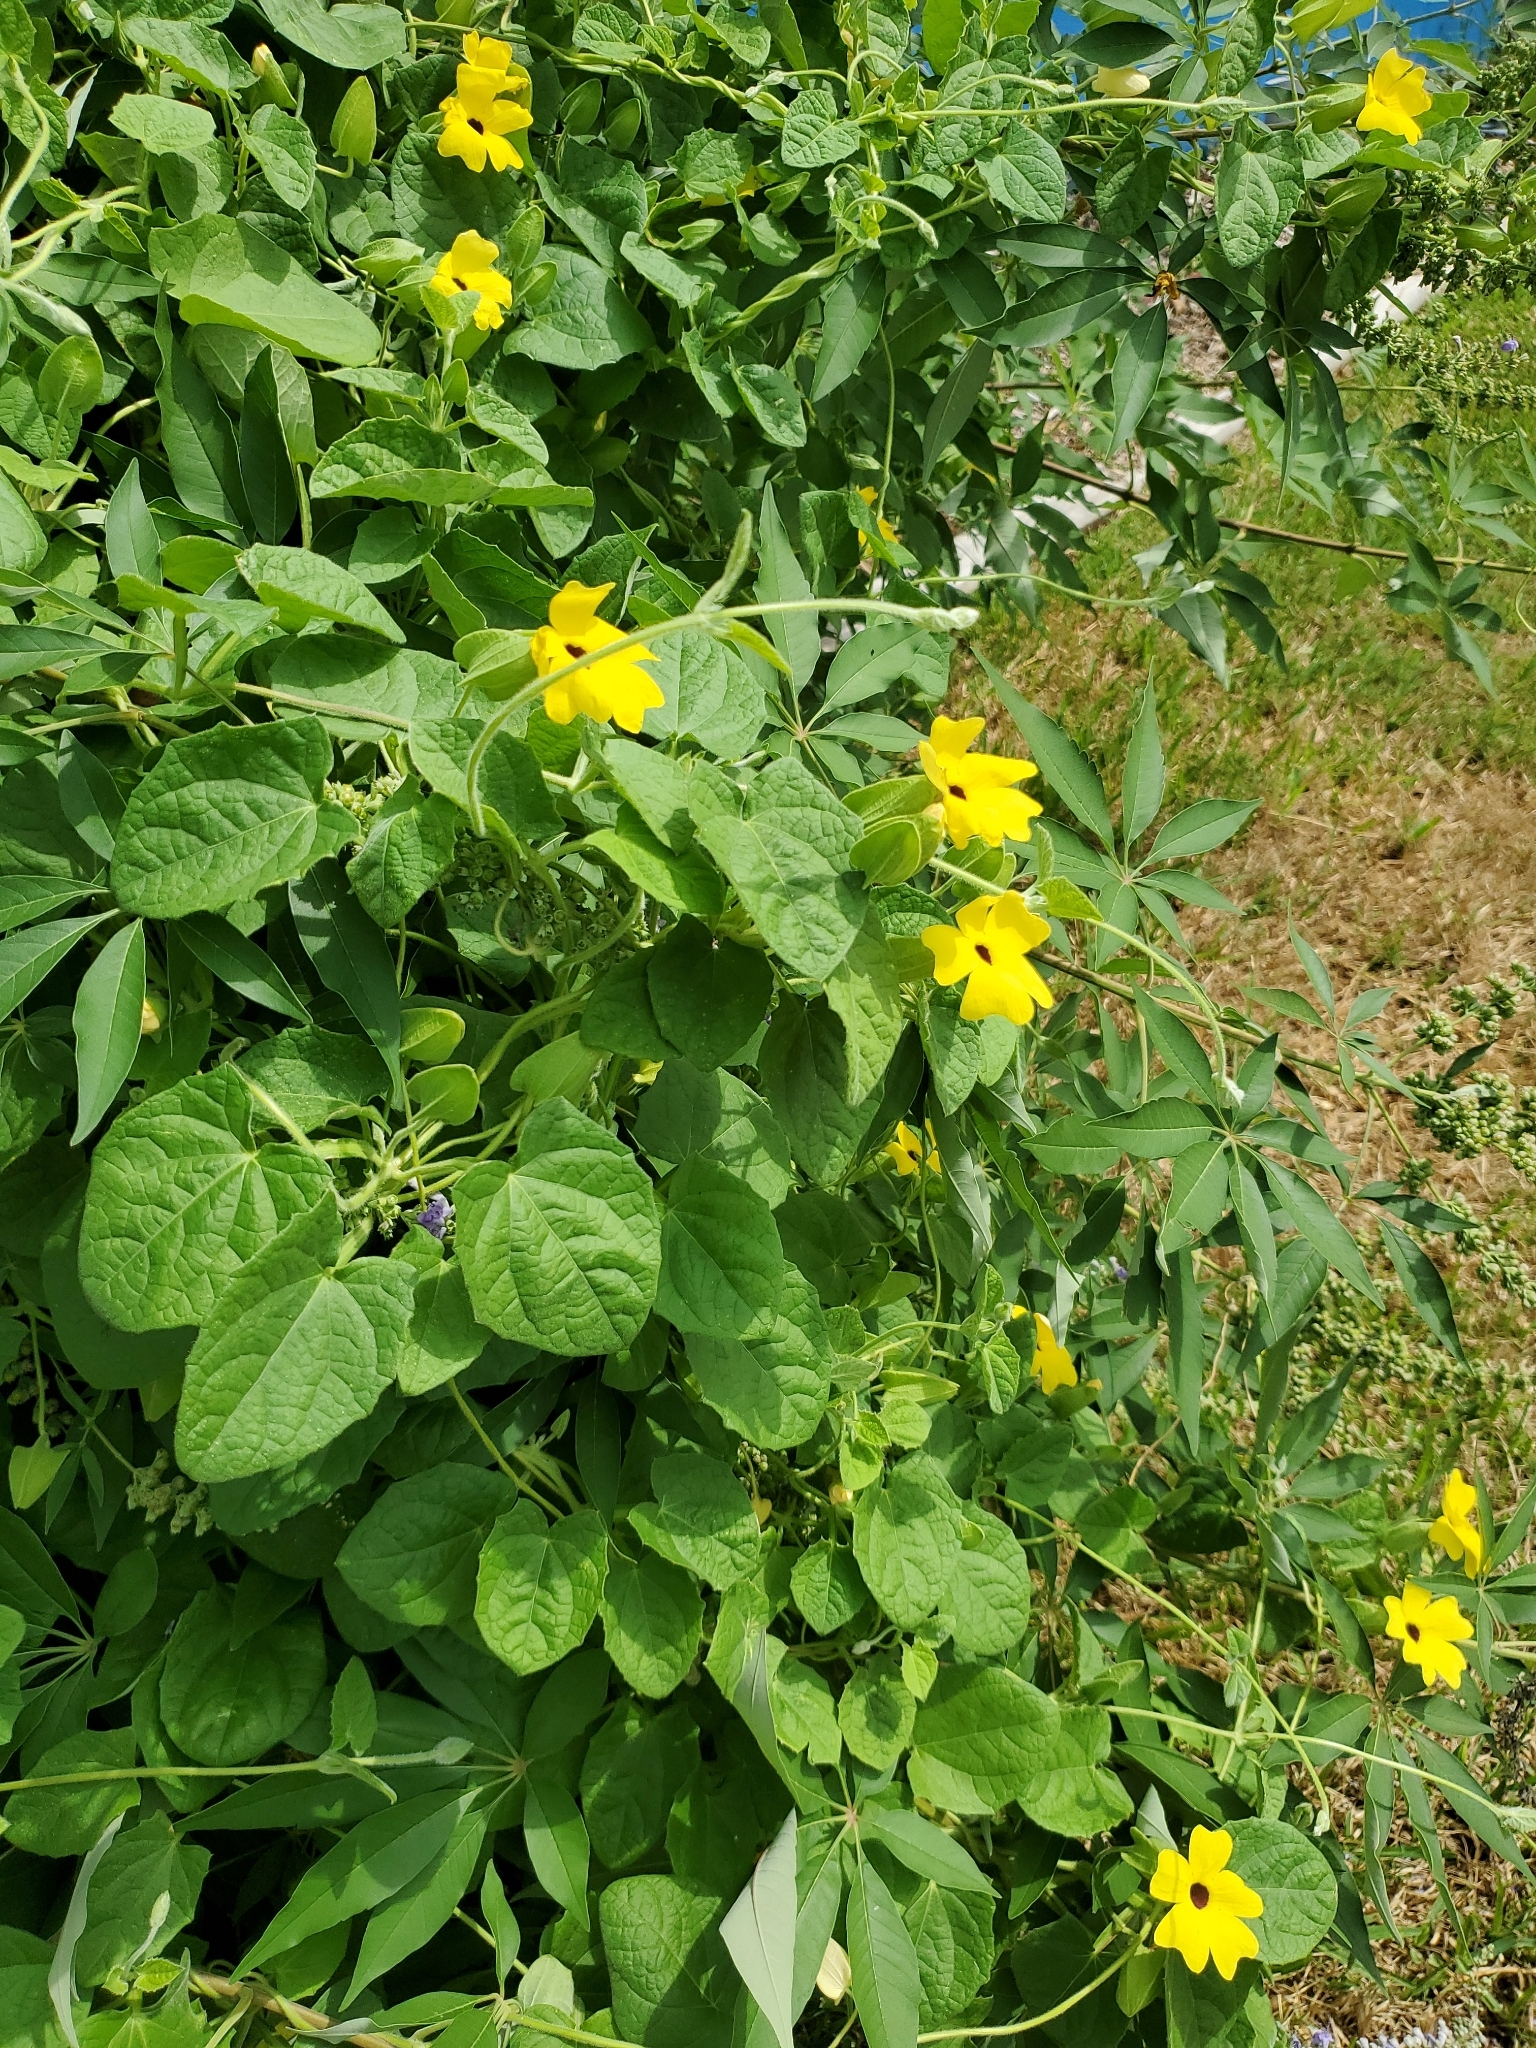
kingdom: Plantae
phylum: Tracheophyta
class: Magnoliopsida
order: Lamiales
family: Acanthaceae
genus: Thunbergia
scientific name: Thunbergia alata
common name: Blackeyed susan vine
